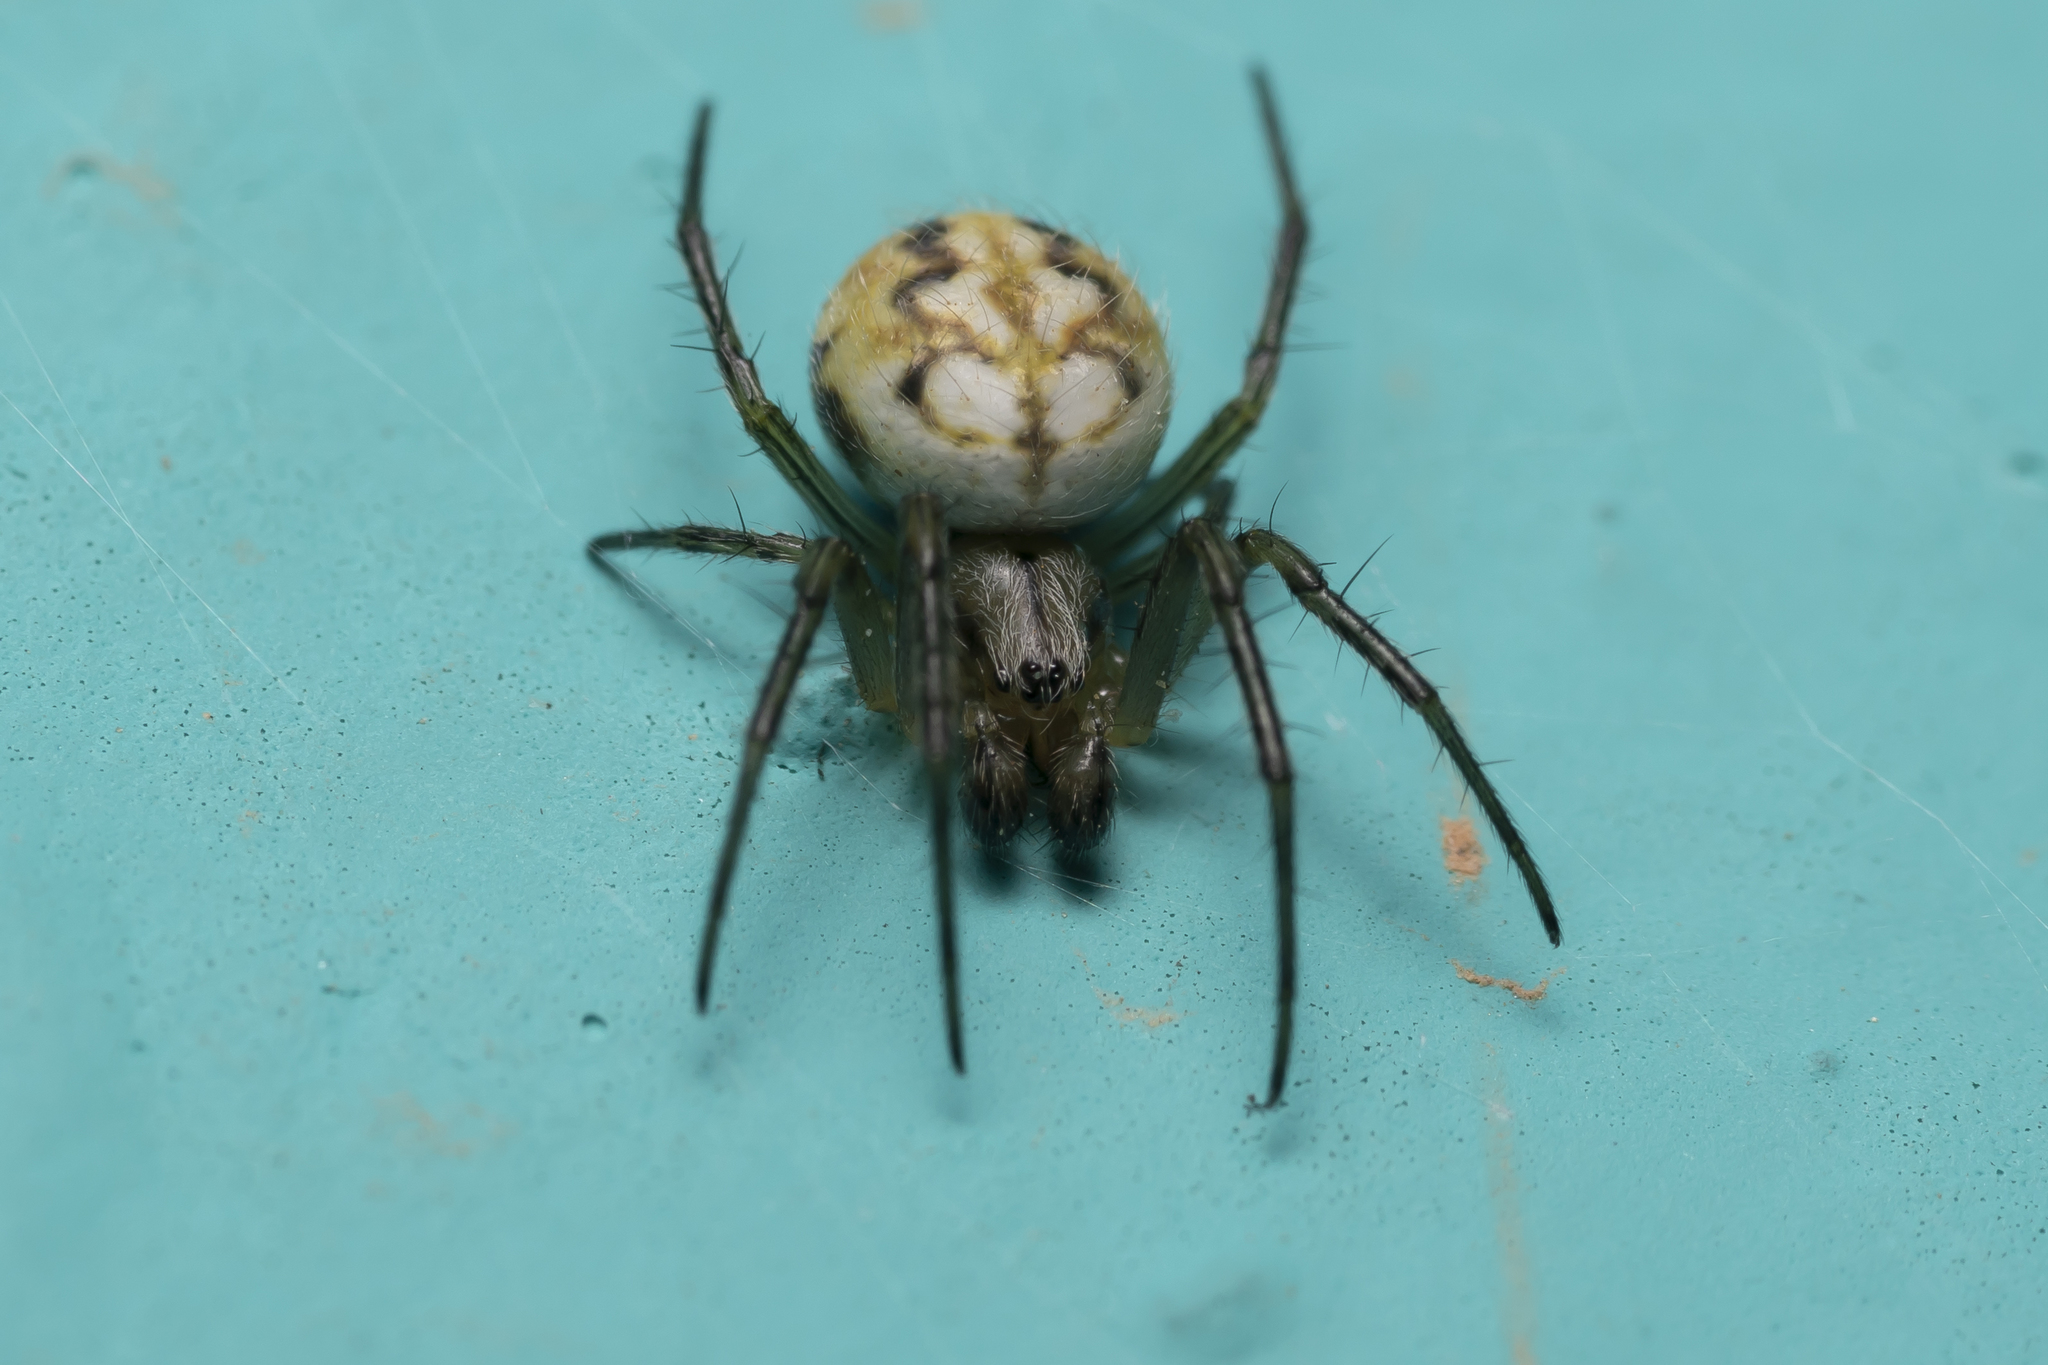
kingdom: Animalia
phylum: Arthropoda
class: Arachnida
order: Araneae
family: Araneidae
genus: Neoscona
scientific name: Neoscona adianta
